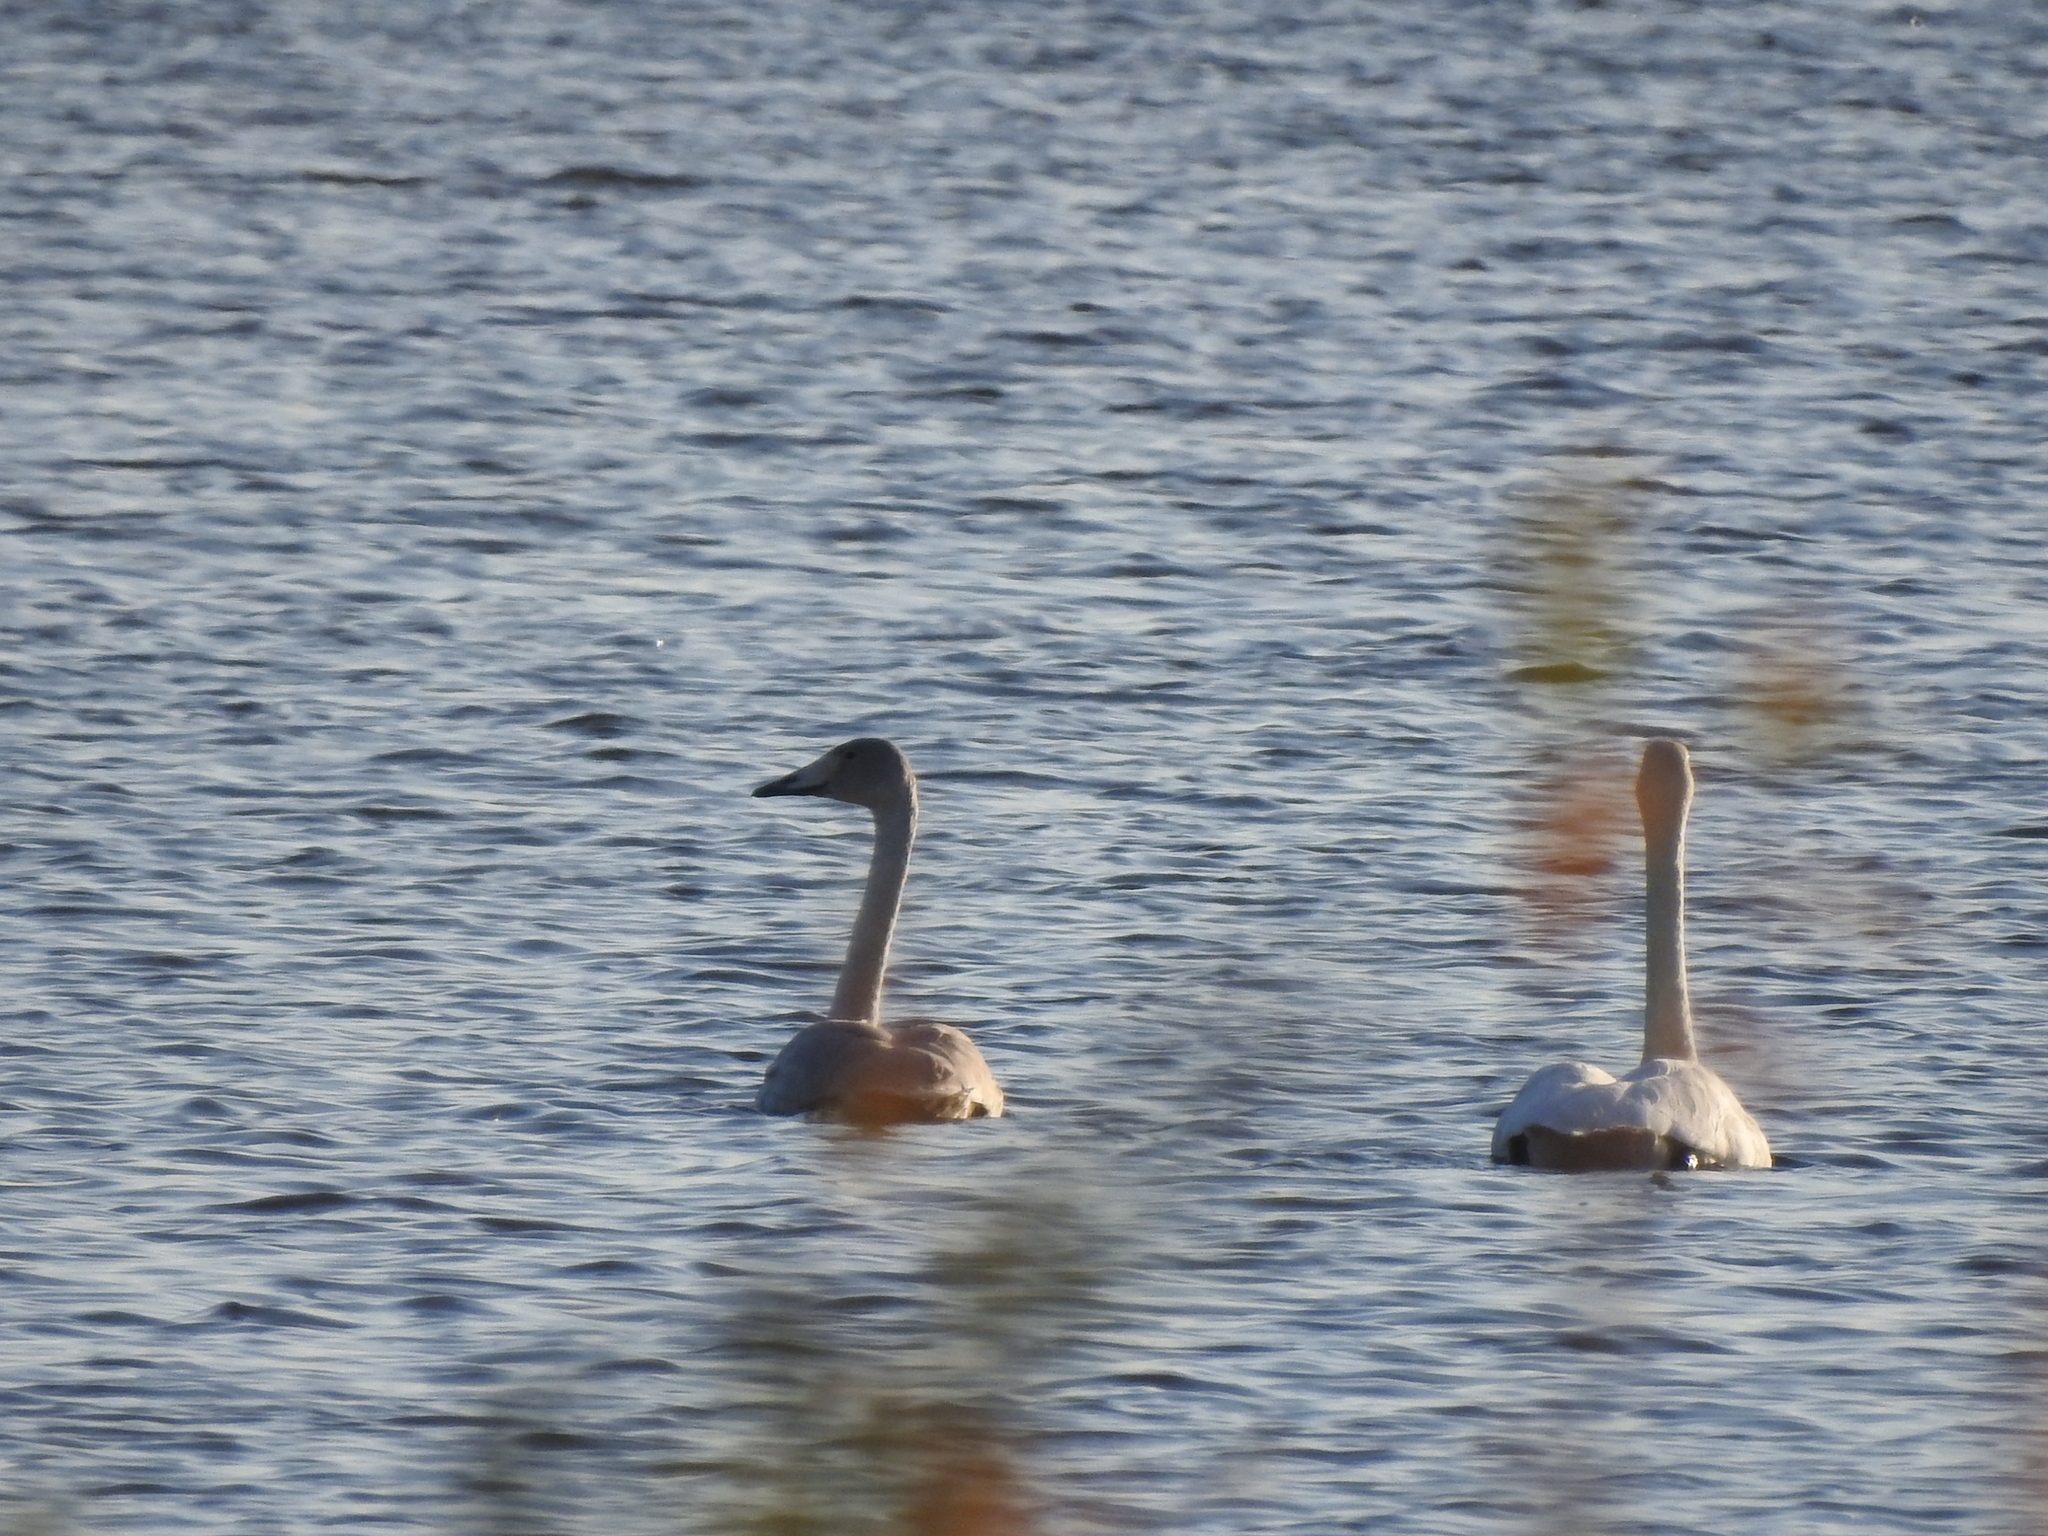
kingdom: Animalia
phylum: Chordata
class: Aves
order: Anseriformes
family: Anatidae
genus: Cygnus
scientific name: Cygnus cygnus
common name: Whooper swan
